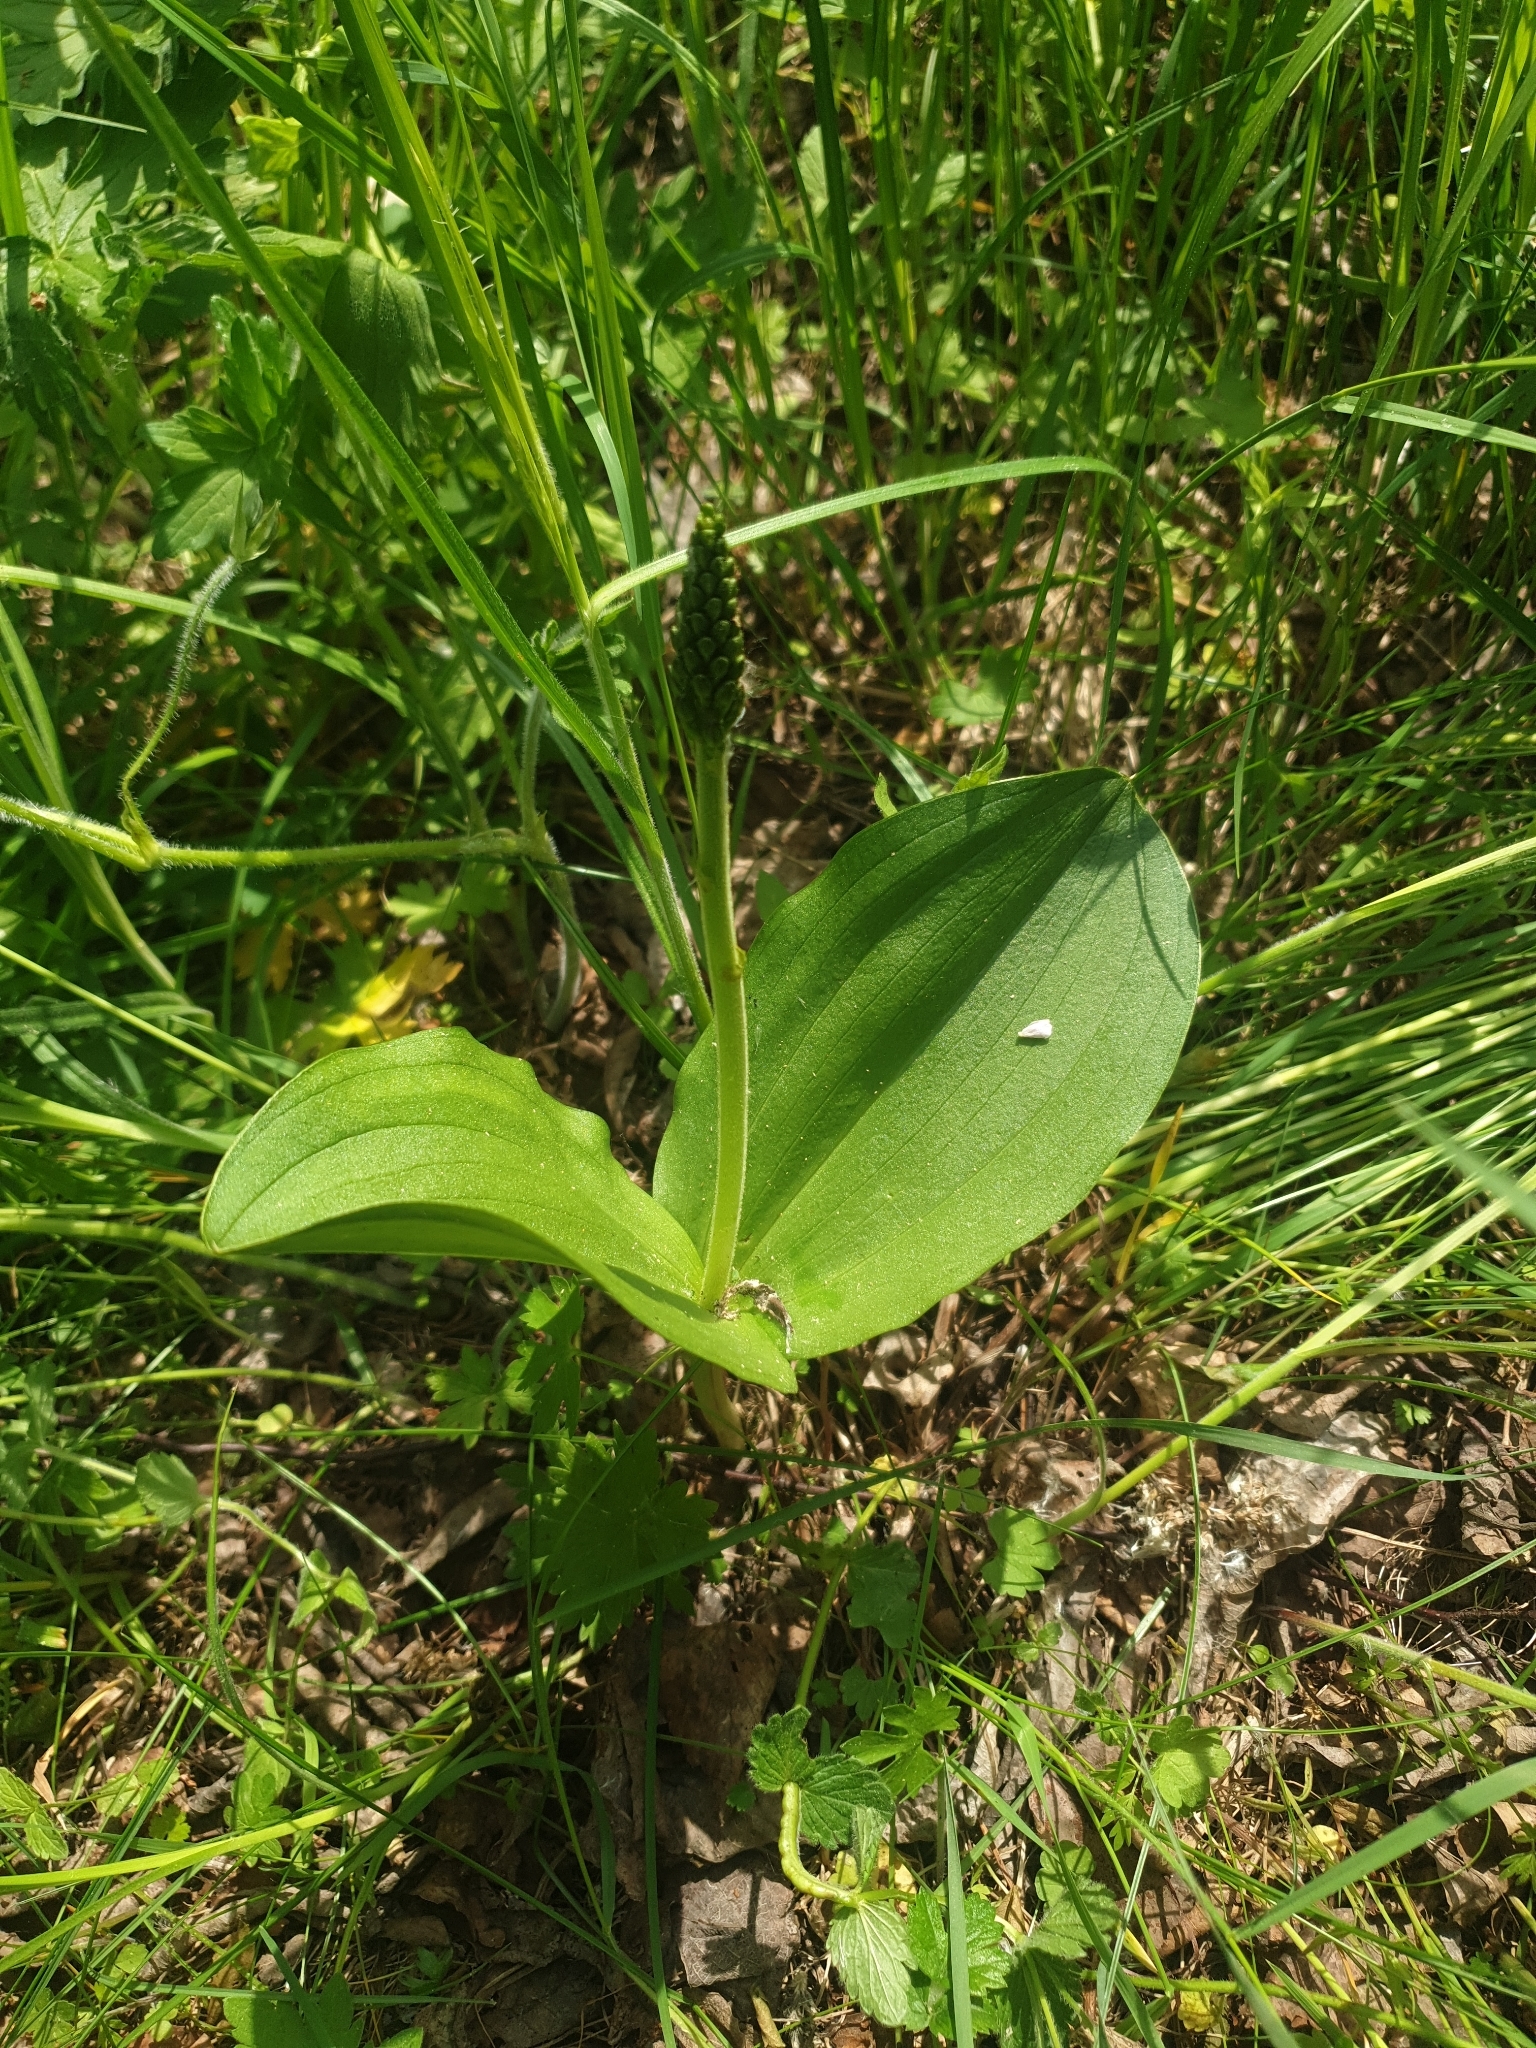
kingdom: Plantae
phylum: Tracheophyta
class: Liliopsida
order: Asparagales
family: Orchidaceae
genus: Neottia
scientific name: Neottia ovata
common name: Common twayblade
